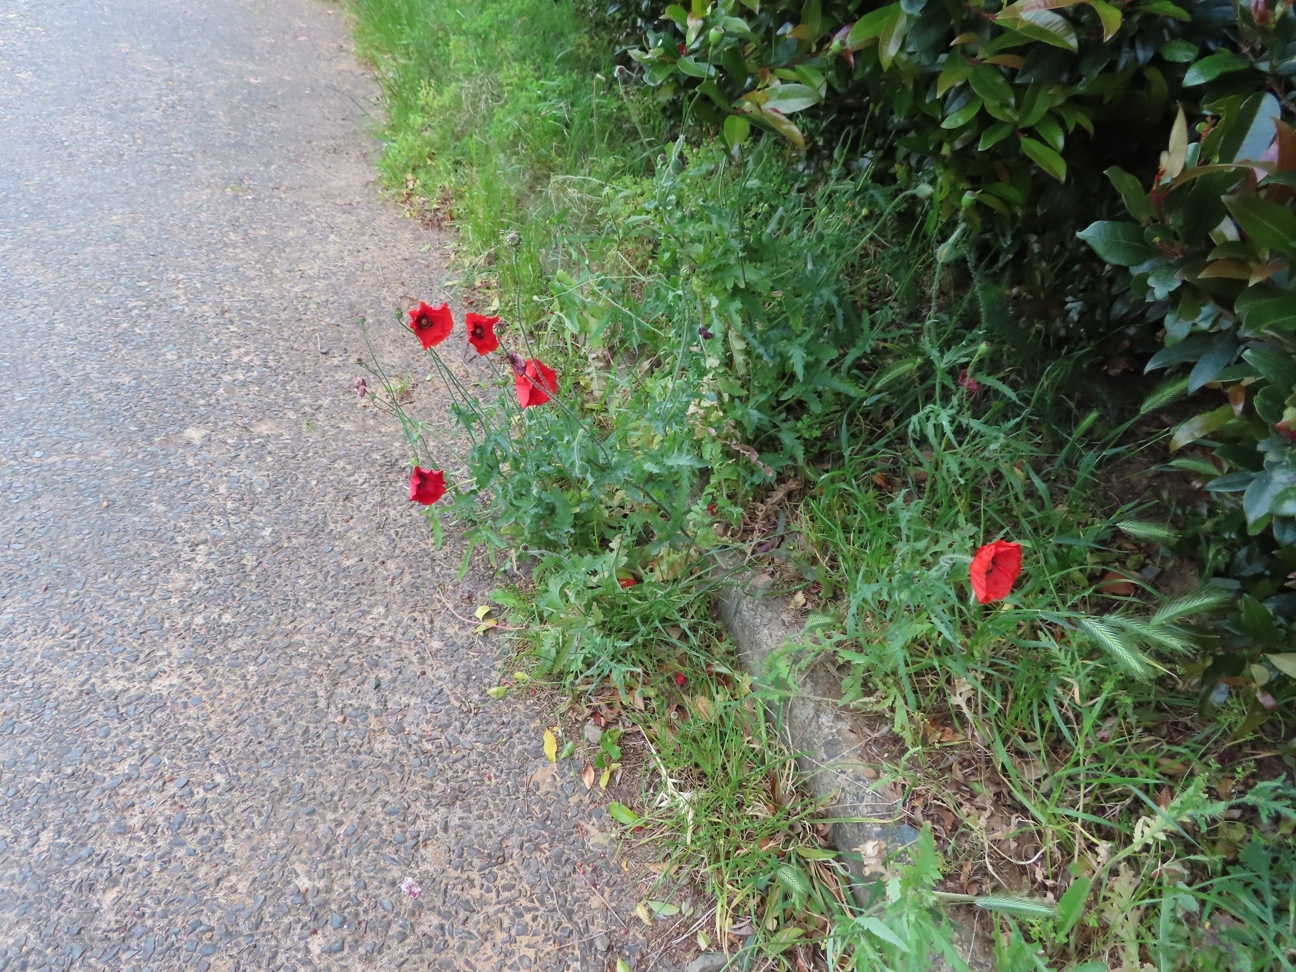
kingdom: Plantae
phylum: Tracheophyta
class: Magnoliopsida
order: Ranunculales
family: Papaveraceae
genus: Papaver
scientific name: Papaver rhoeas
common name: Corn poppy
